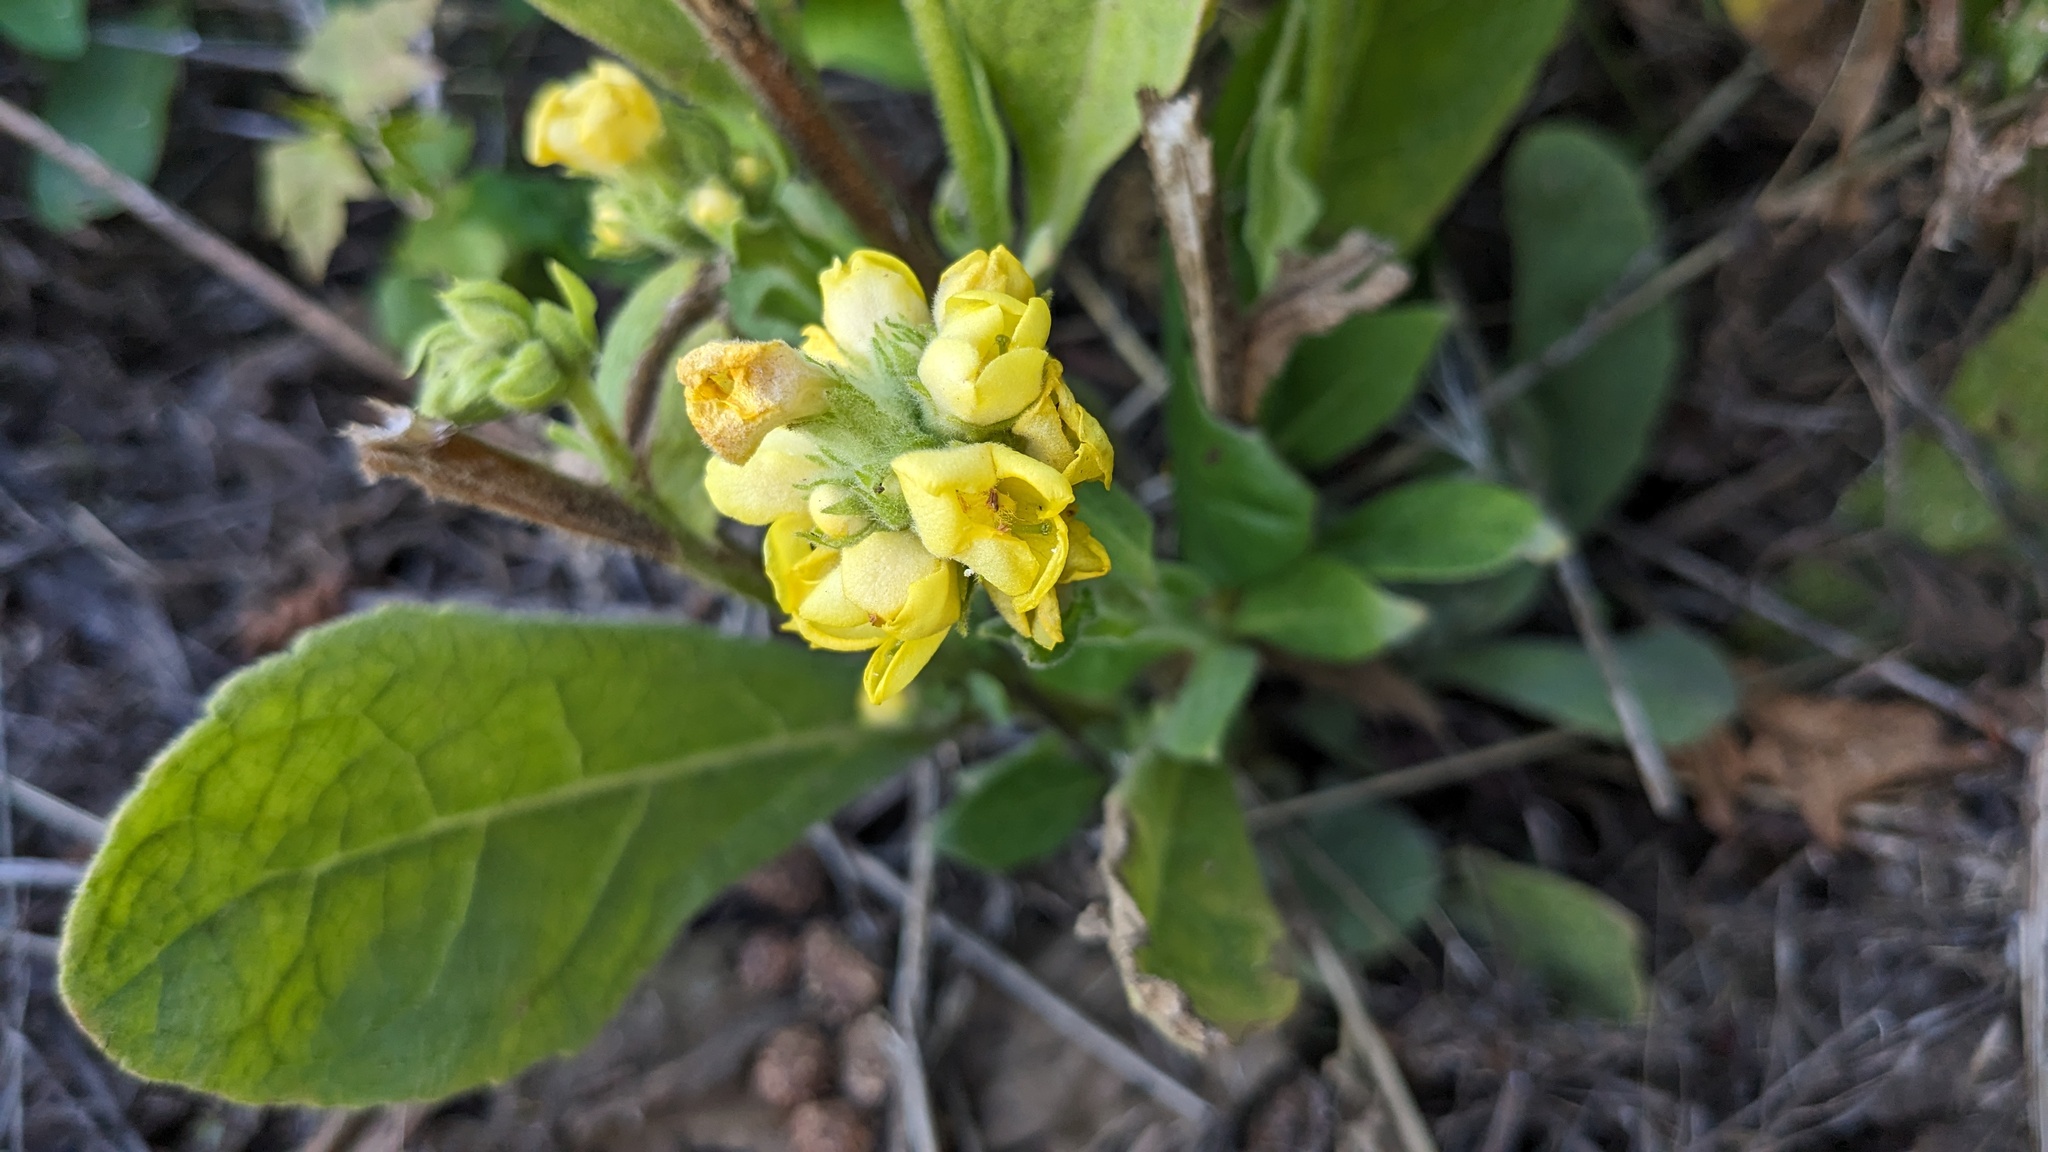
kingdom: Plantae
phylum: Tracheophyta
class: Magnoliopsida
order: Lamiales
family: Scrophulariaceae
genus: Verbascum
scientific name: Verbascum thapsus
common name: Common mullein
